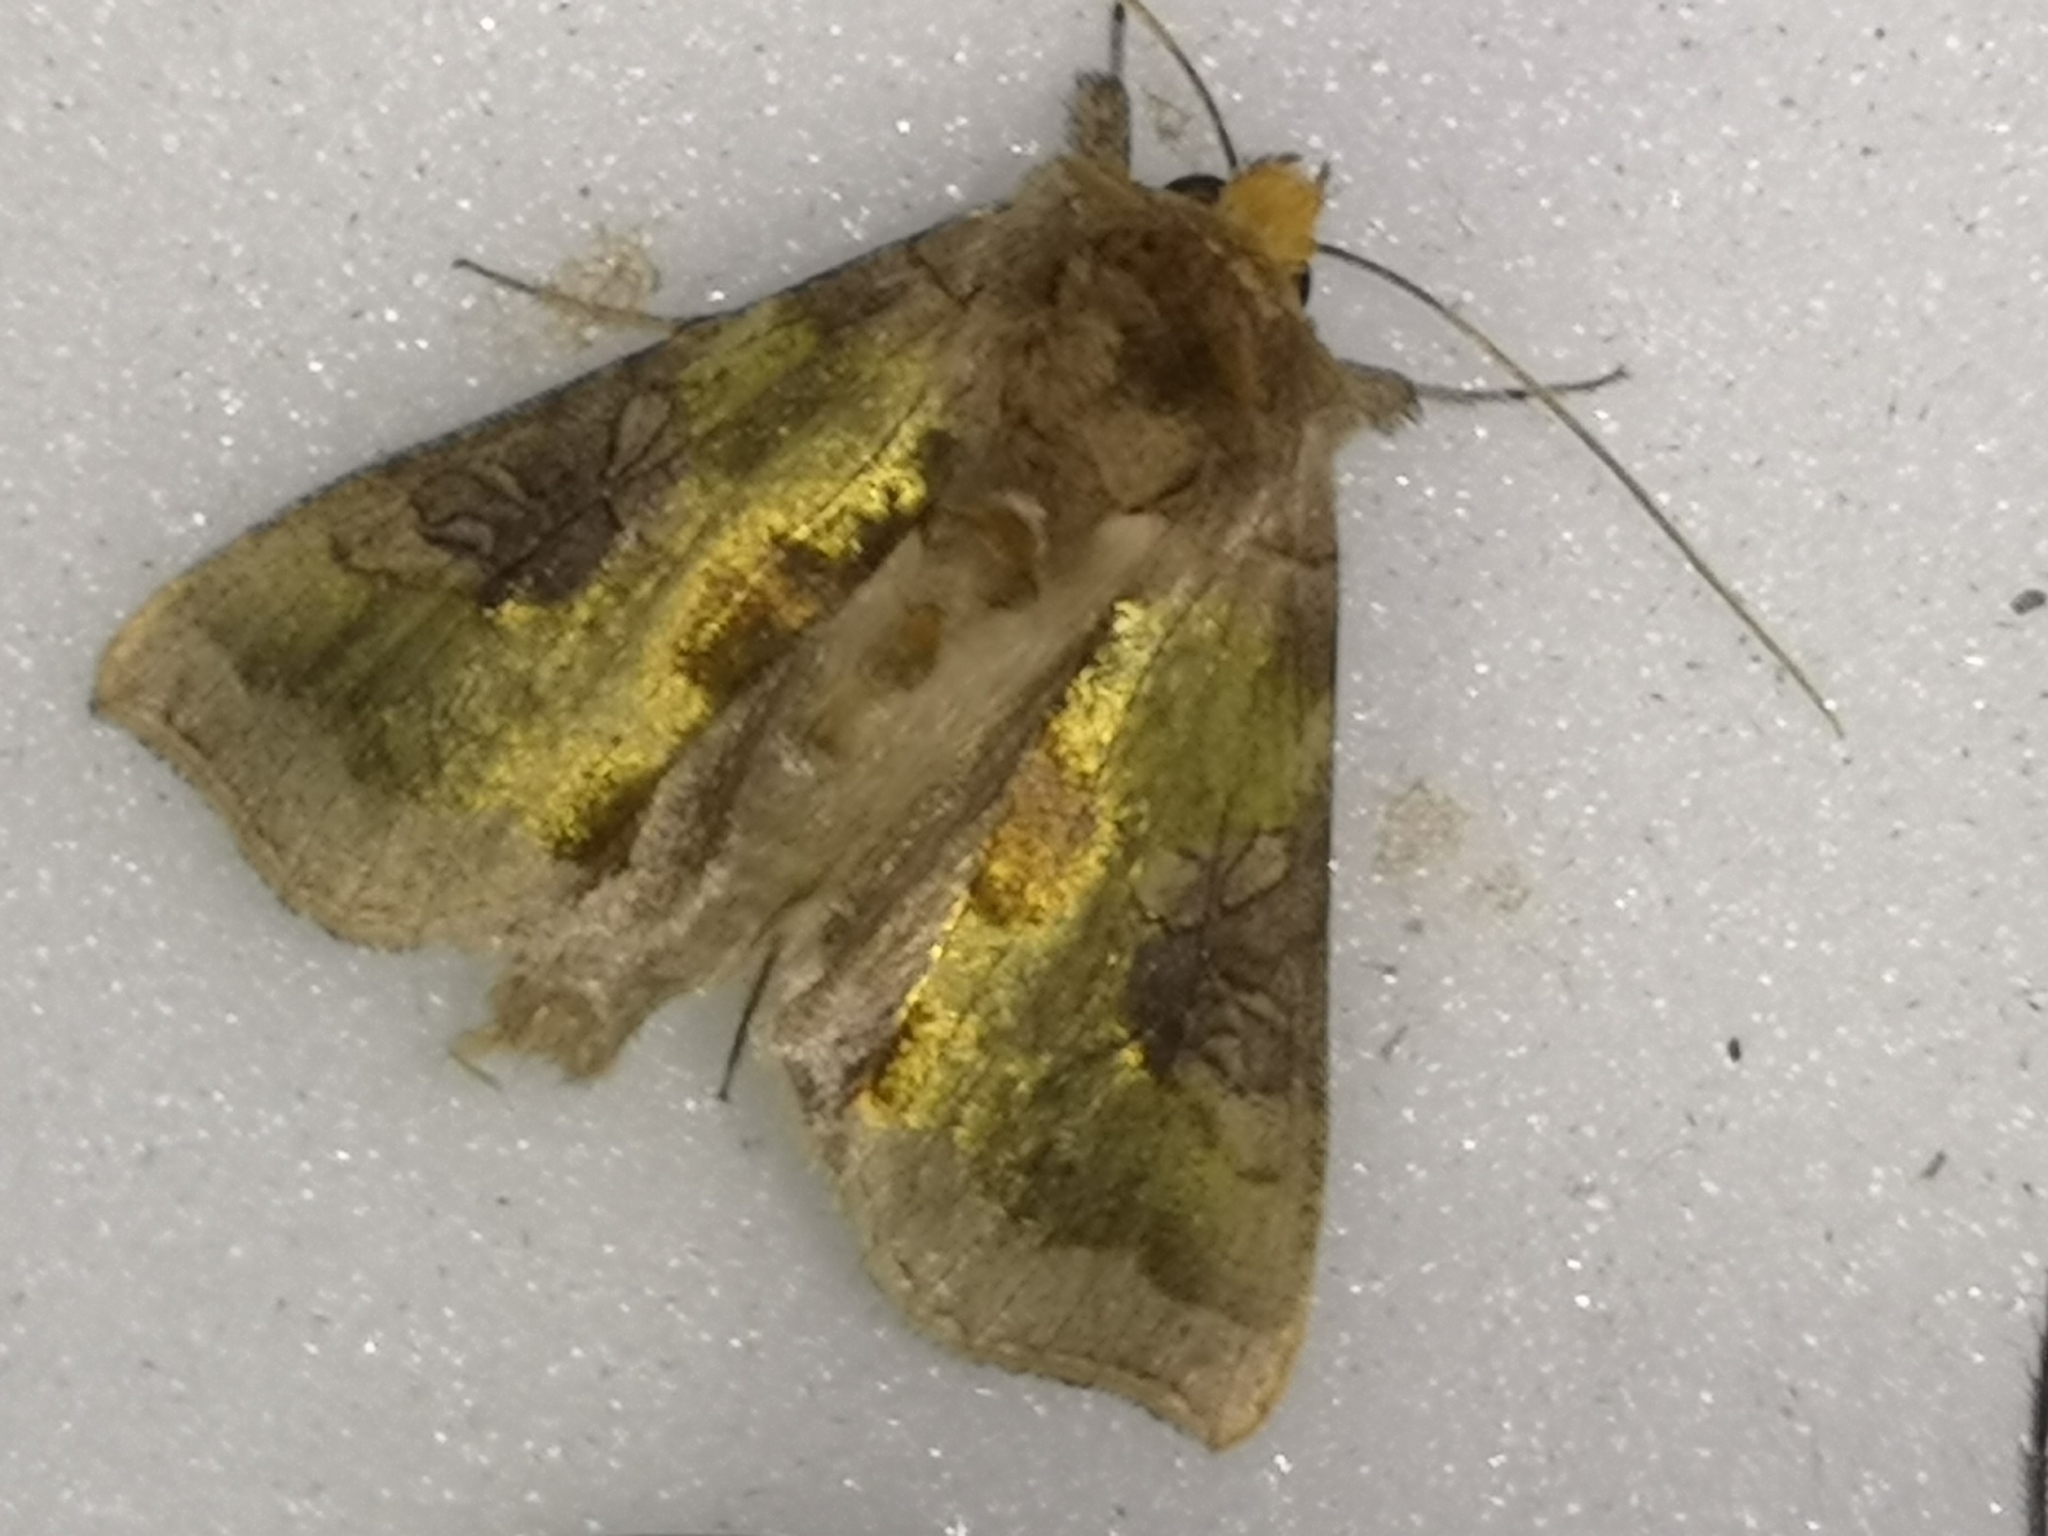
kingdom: Animalia
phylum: Arthropoda
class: Insecta
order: Lepidoptera
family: Noctuidae
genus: Diachrysia
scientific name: Diachrysia chrysitis
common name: Burnished brass
